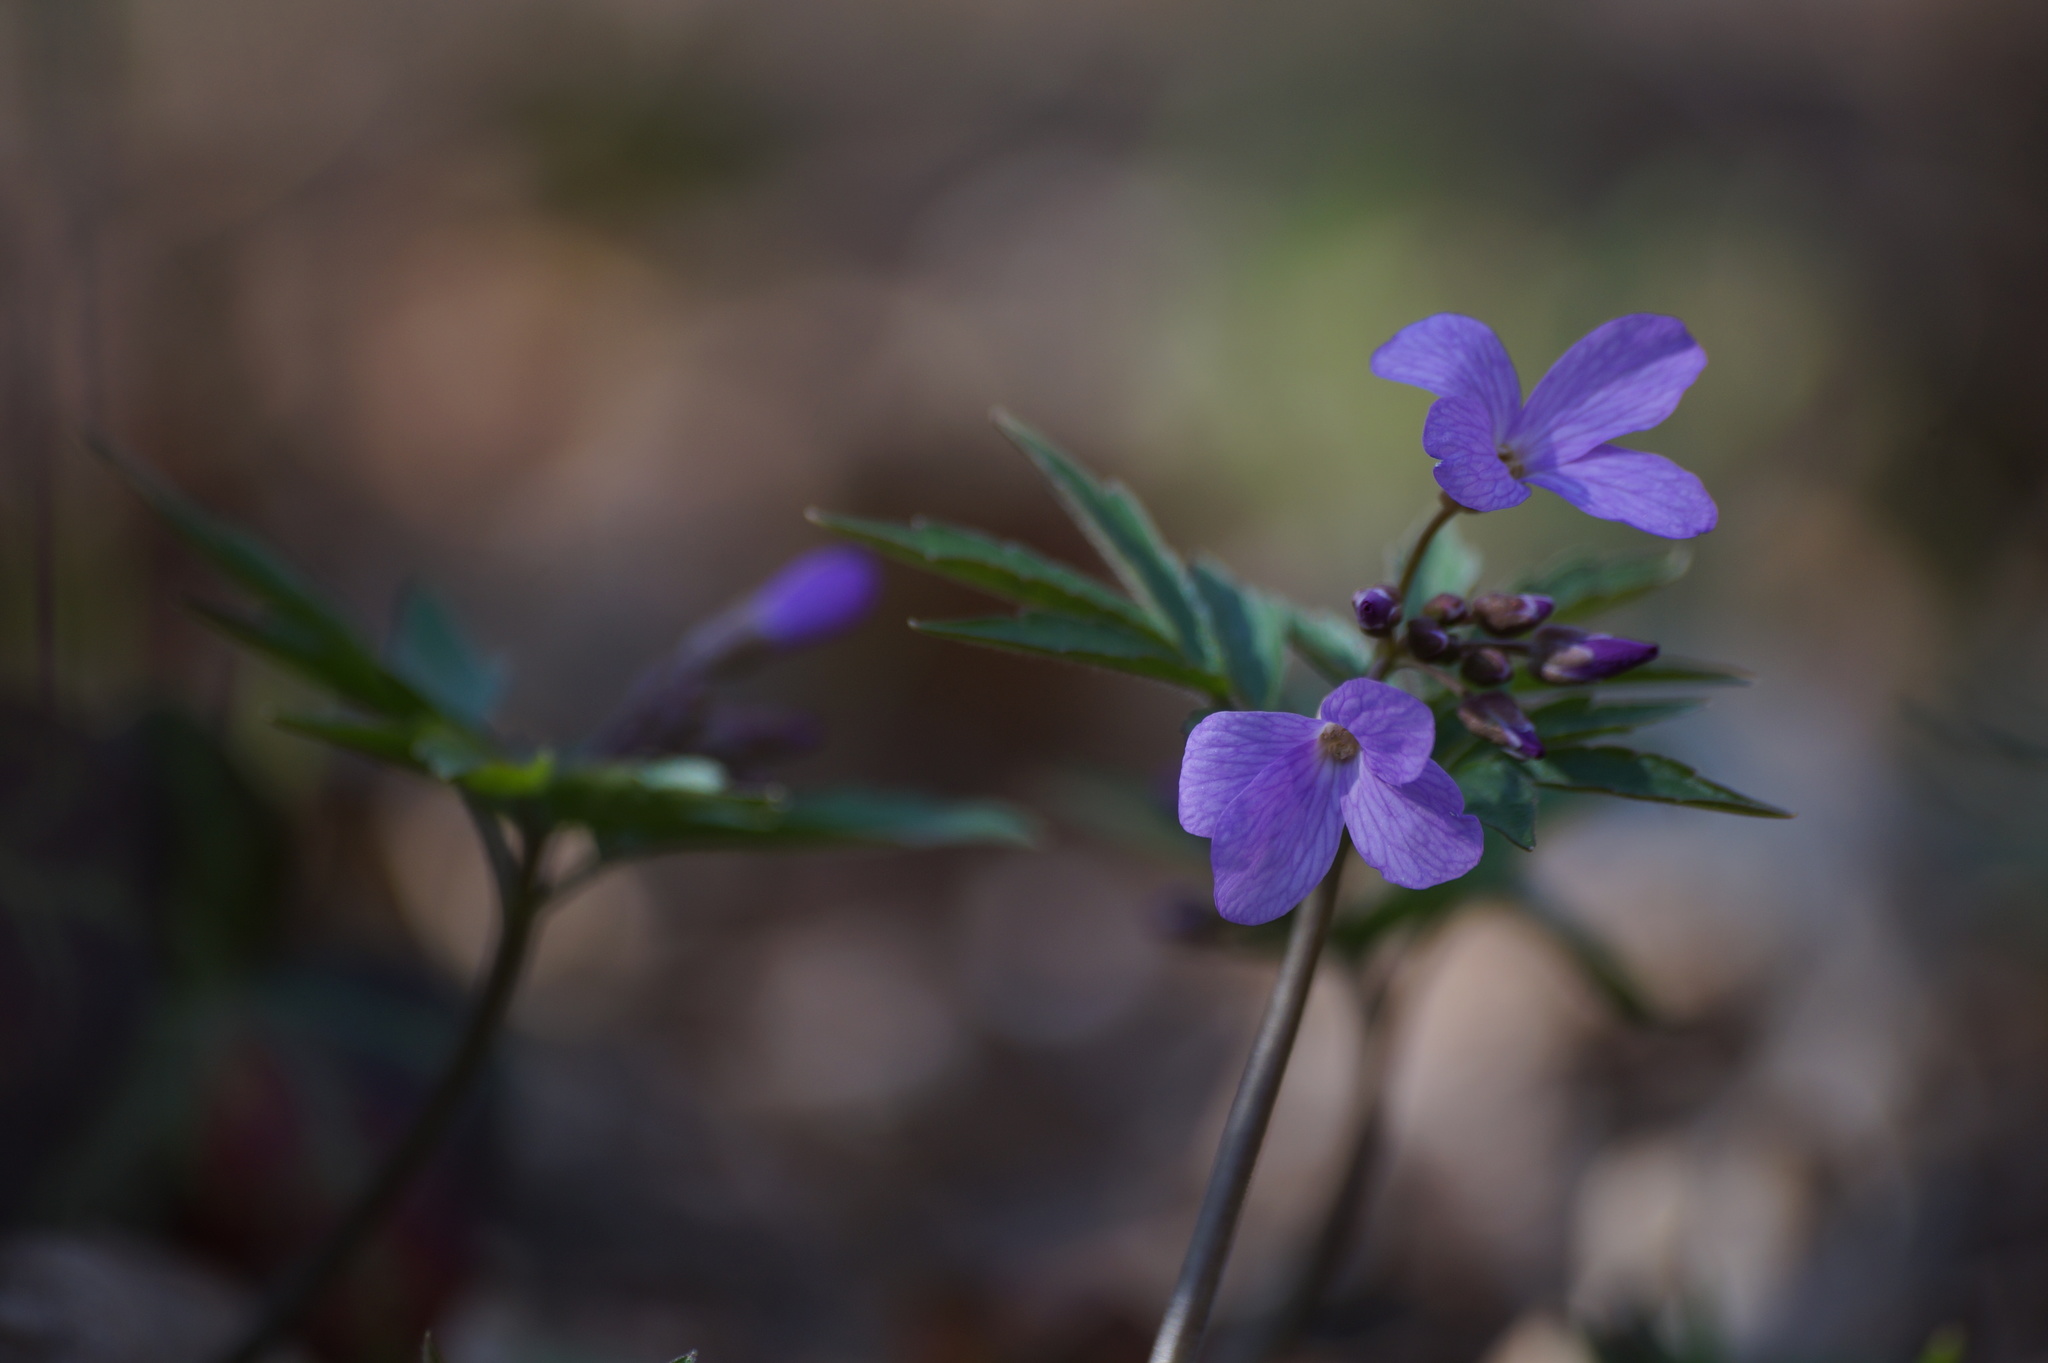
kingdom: Plantae
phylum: Tracheophyta
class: Magnoliopsida
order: Brassicales
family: Brassicaceae
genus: Cardamine
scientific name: Cardamine quinquefolia
